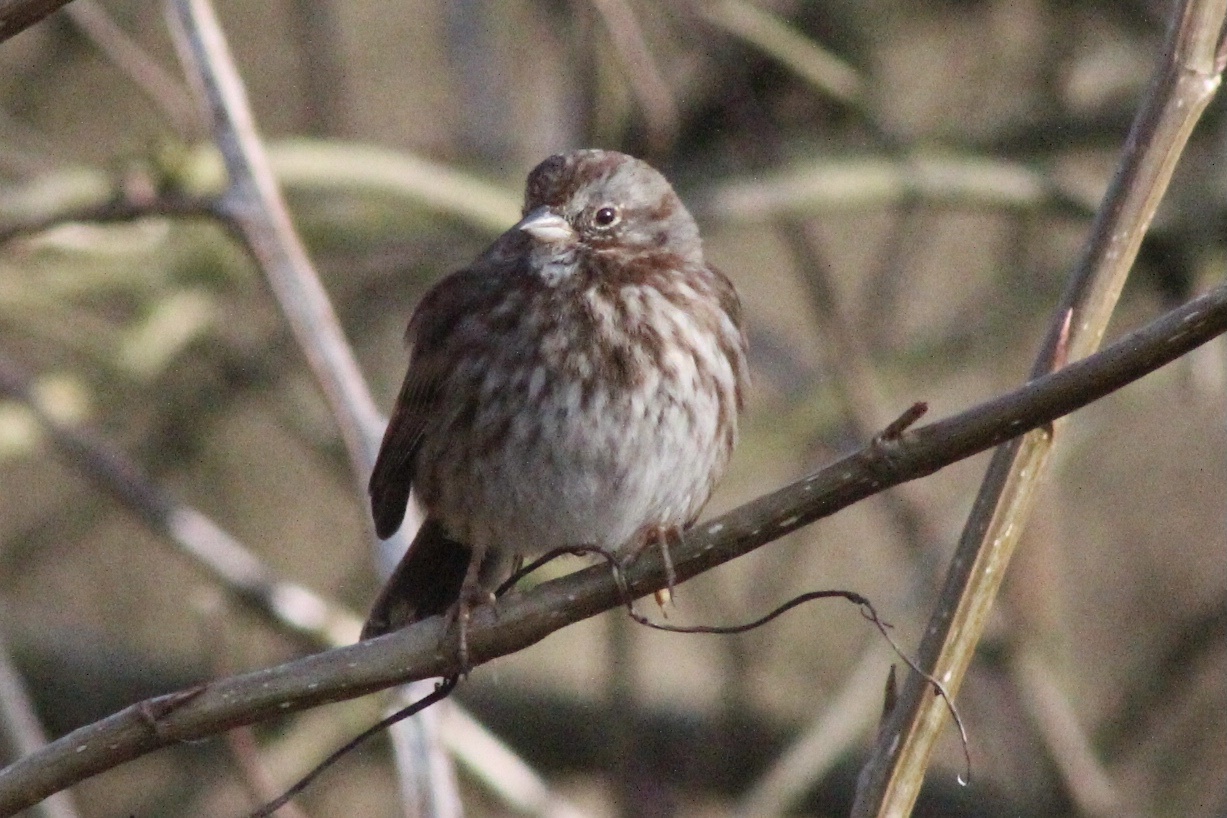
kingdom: Animalia
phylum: Chordata
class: Aves
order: Passeriformes
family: Passerellidae
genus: Melospiza
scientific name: Melospiza melodia
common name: Song sparrow
